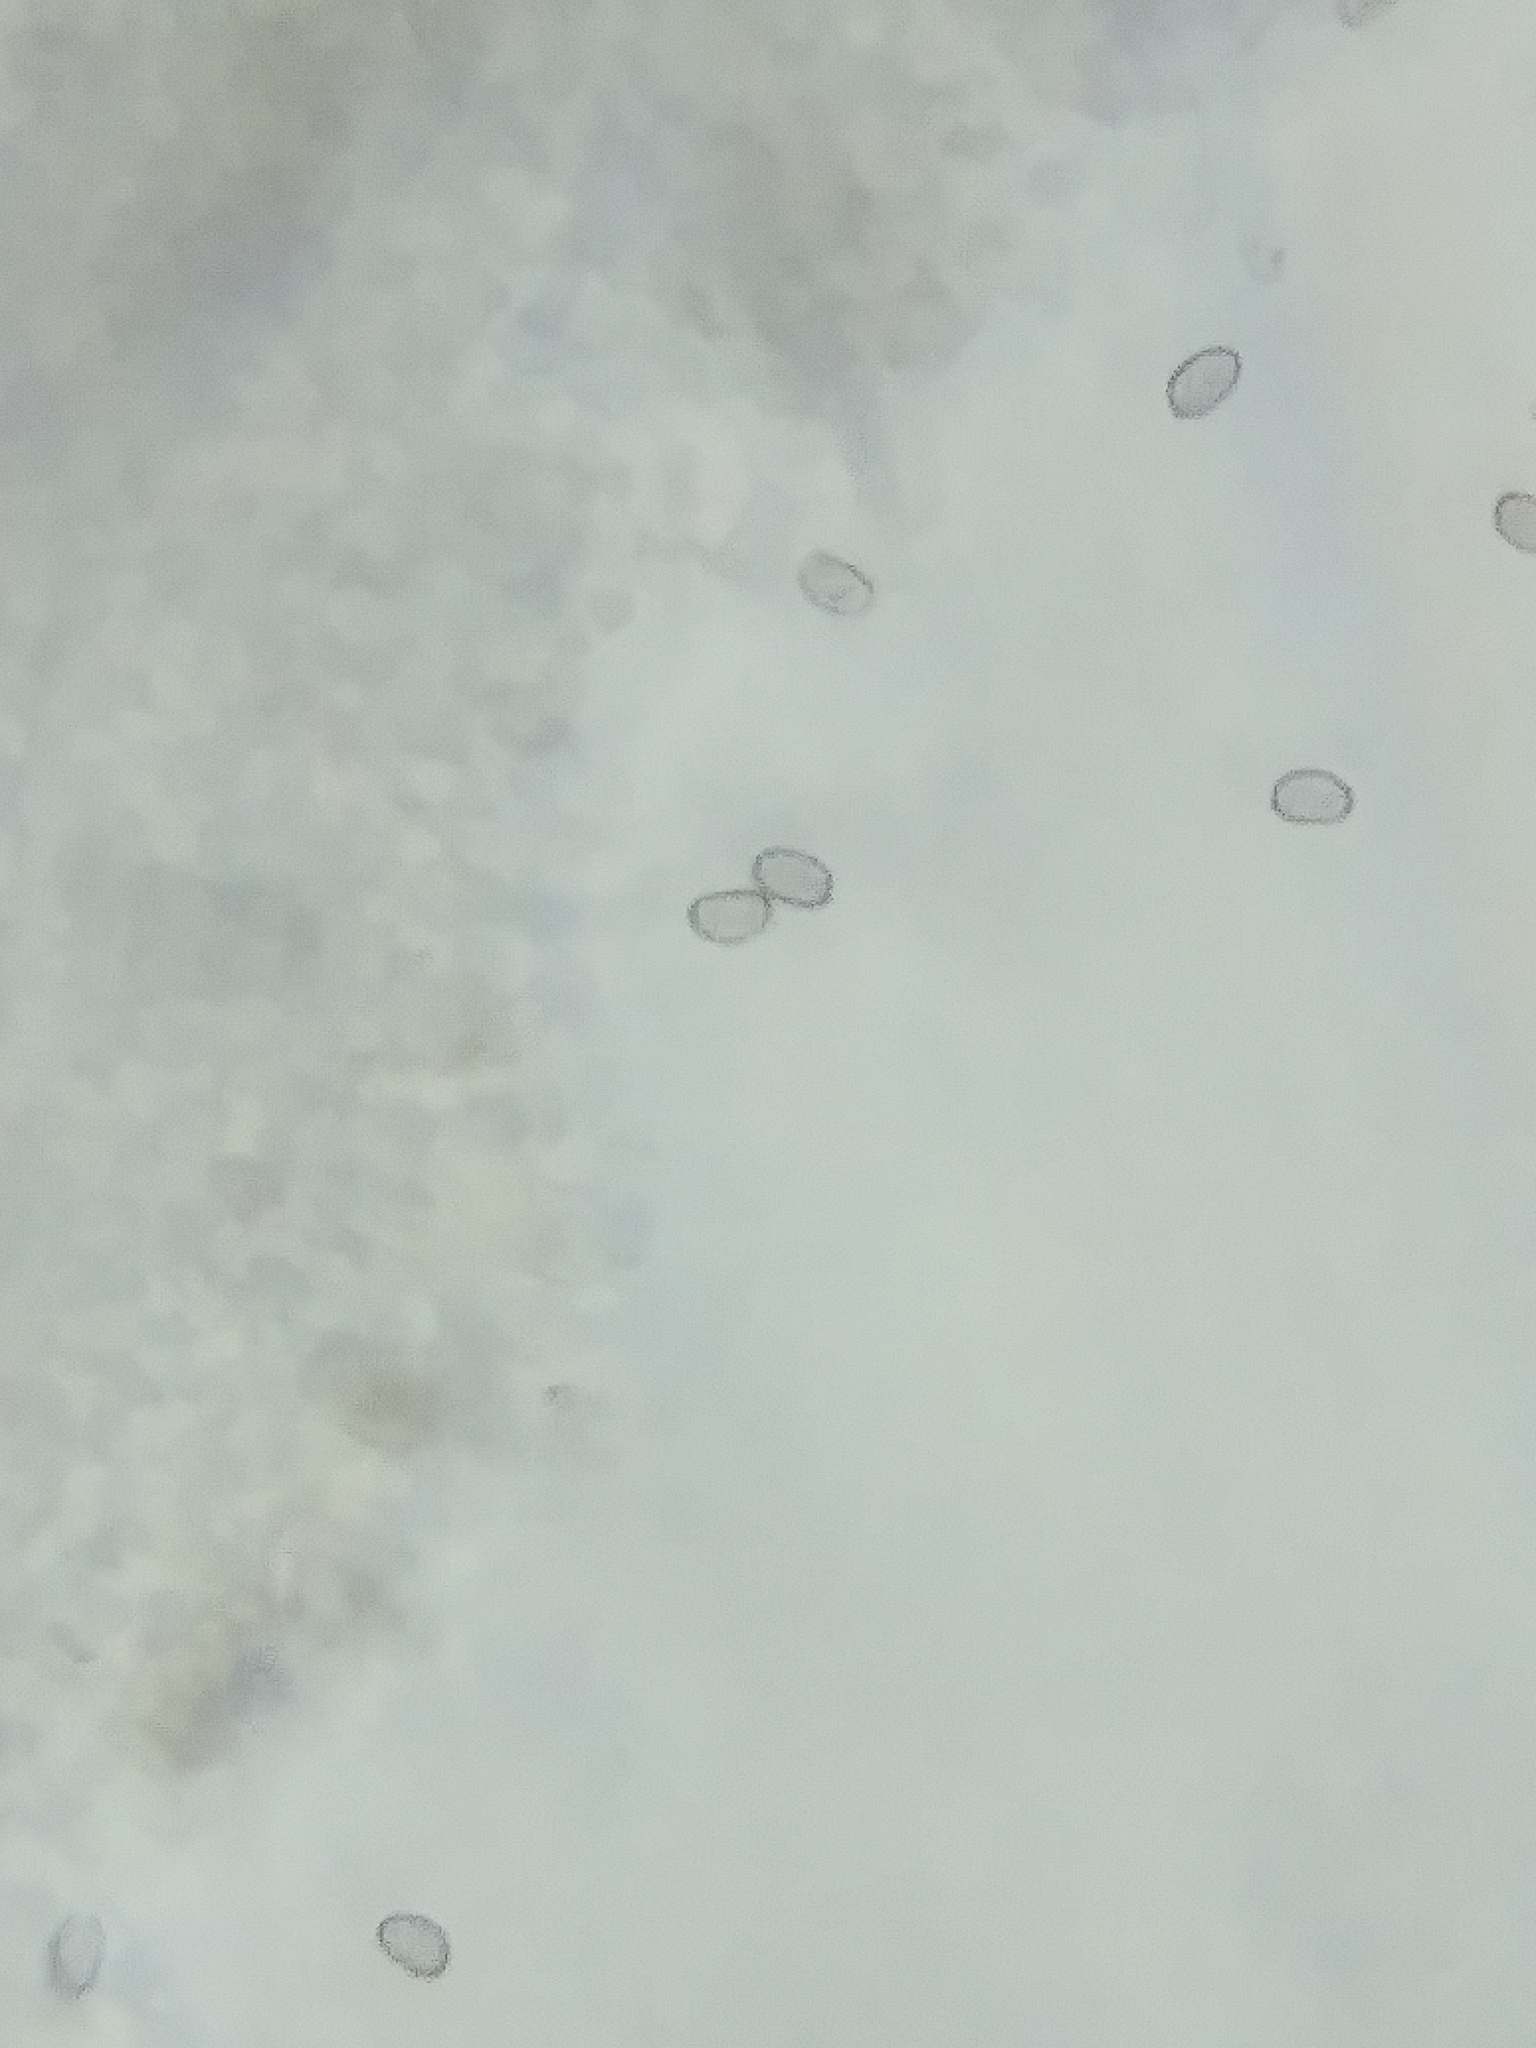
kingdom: Fungi
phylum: Basidiomycota
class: Agaricomycetes
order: Agaricales
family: Strophariaceae
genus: Stropharia
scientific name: Stropharia hardii
